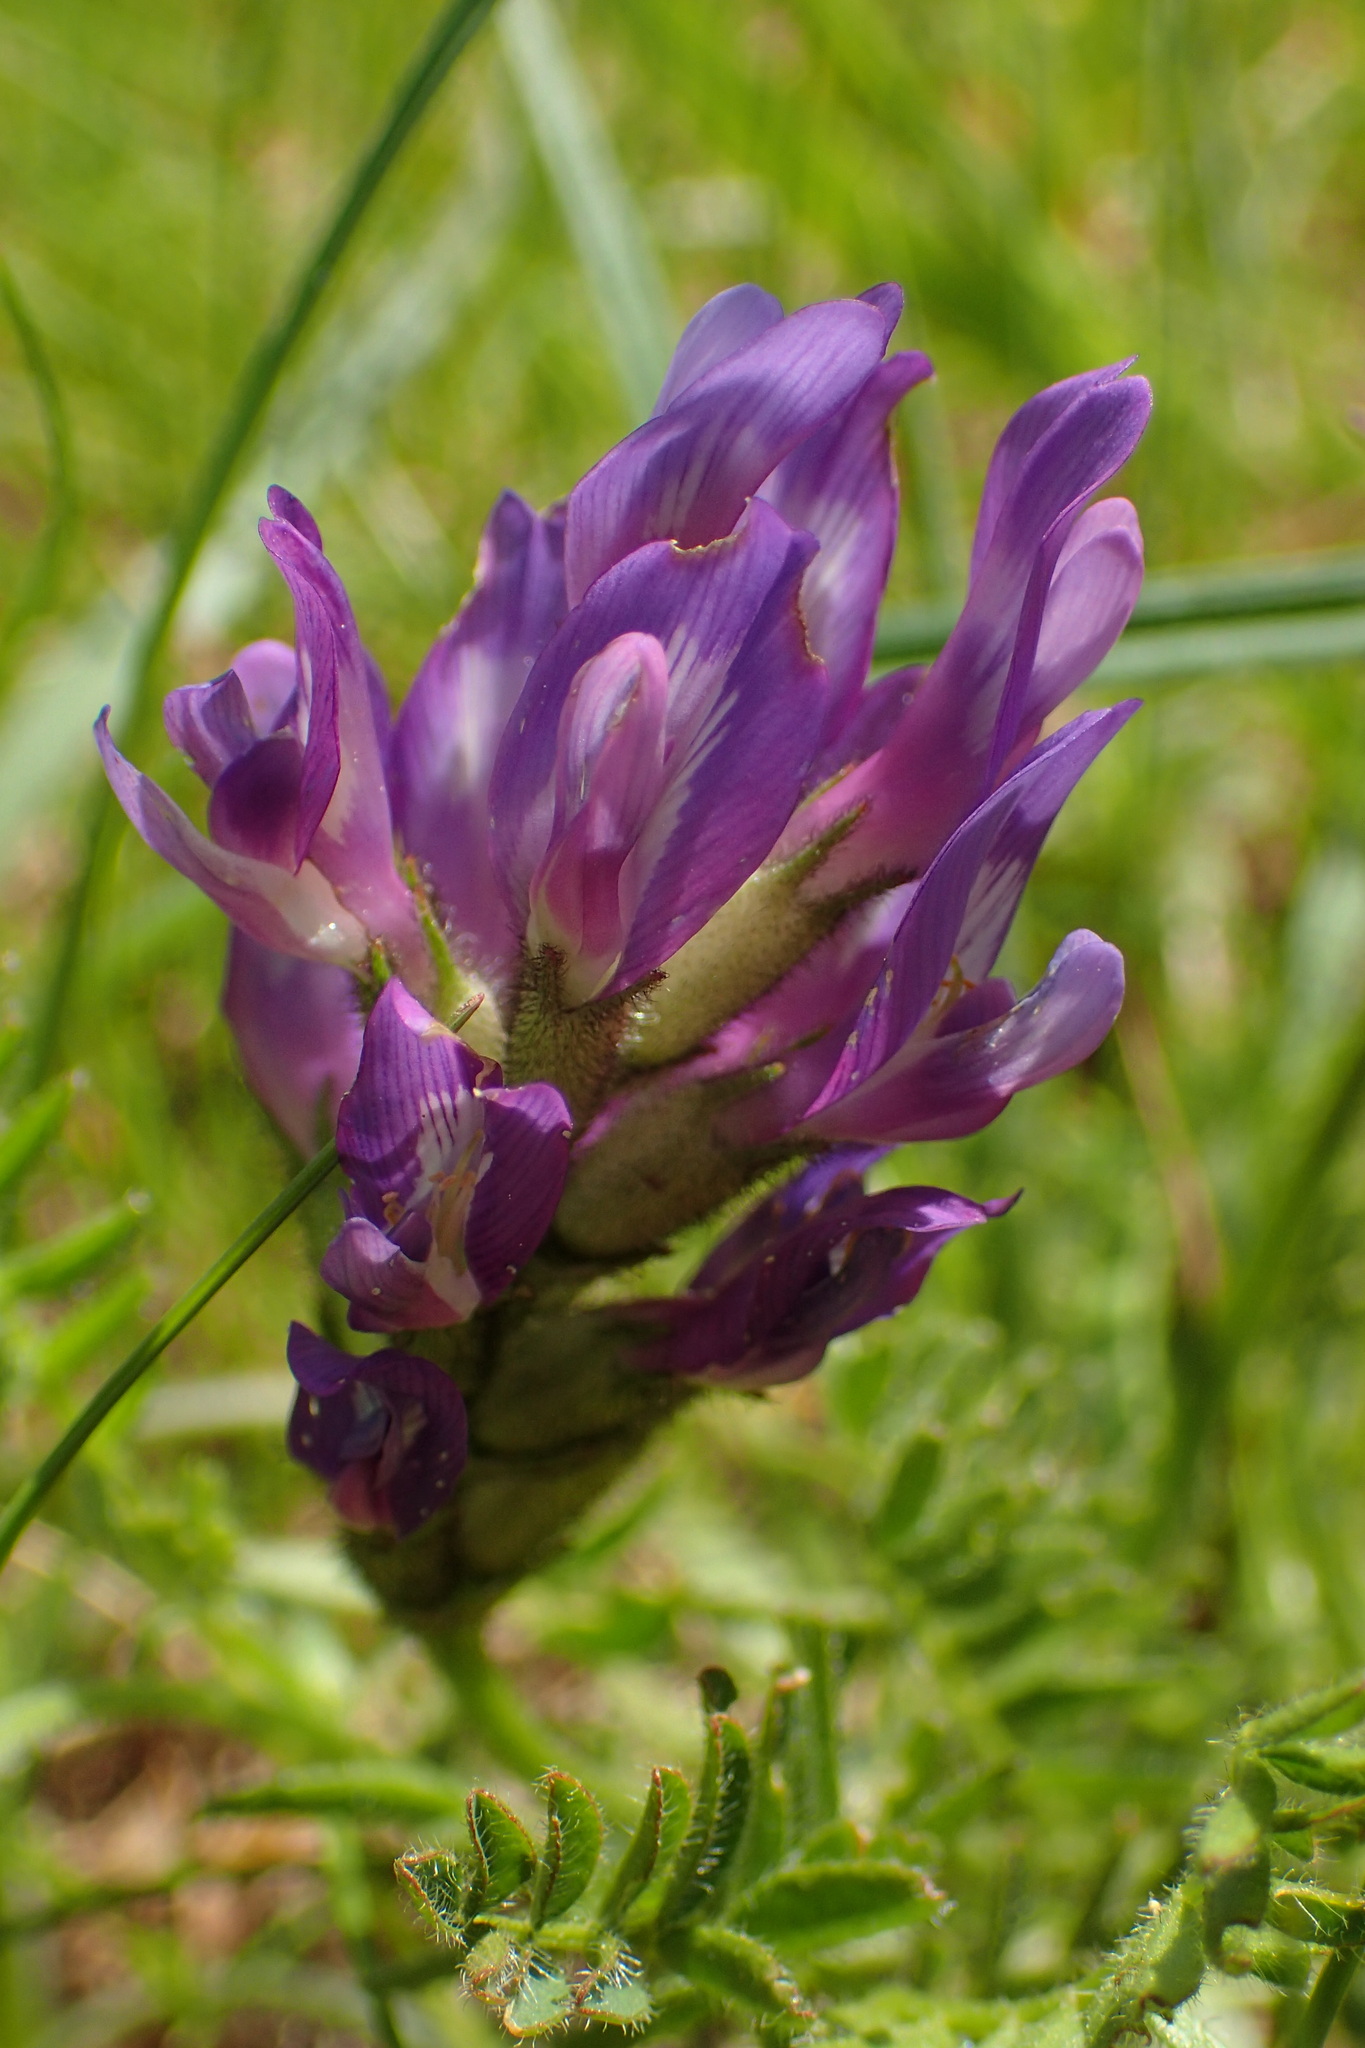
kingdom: Plantae
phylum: Tracheophyta
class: Magnoliopsida
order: Fabales
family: Fabaceae
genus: Astragalus
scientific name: Astragalus danicus
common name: Purple milk-vetch
